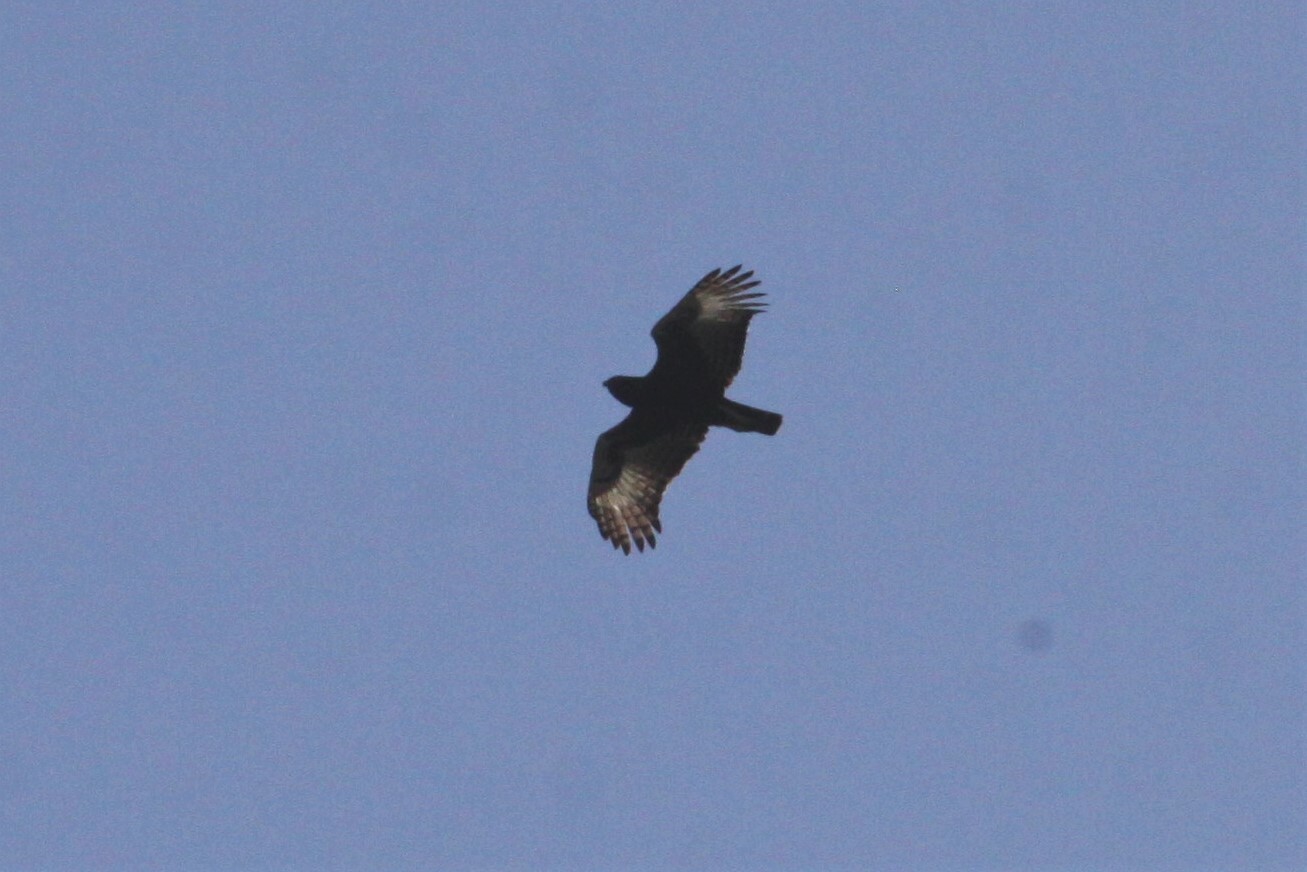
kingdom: Animalia
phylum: Chordata
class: Aves
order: Accipitriformes
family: Accipitridae
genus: Lophaetus
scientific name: Lophaetus occipitalis
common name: Long-crested eagle
